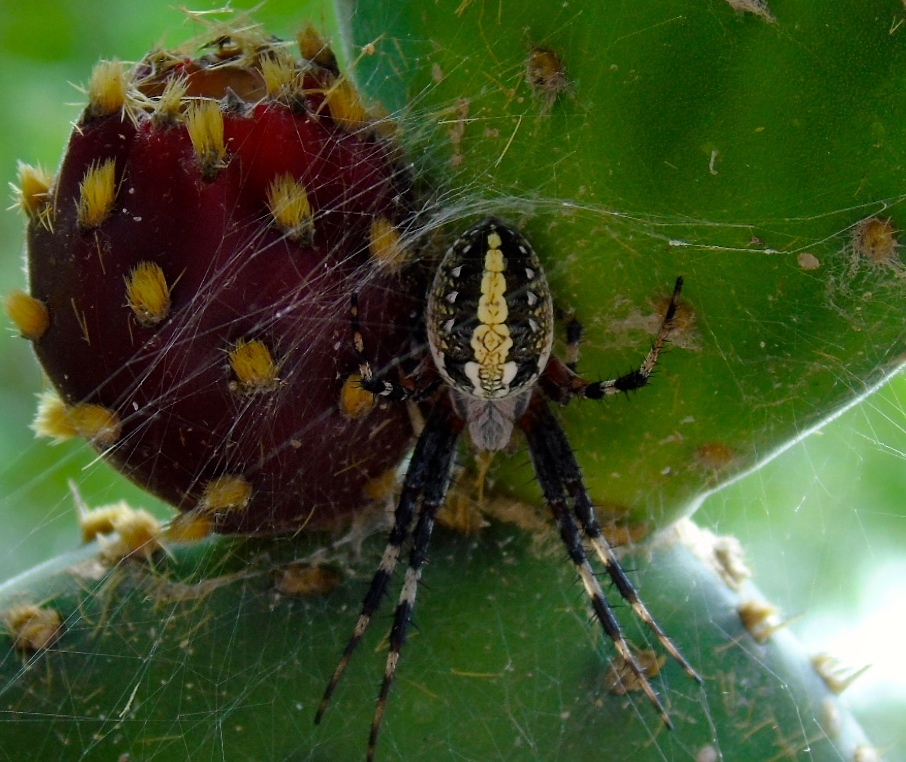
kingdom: Animalia
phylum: Arthropoda
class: Arachnida
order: Araneae
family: Araneidae
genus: Neoscona
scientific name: Neoscona oaxacensis
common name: Orb weavers
